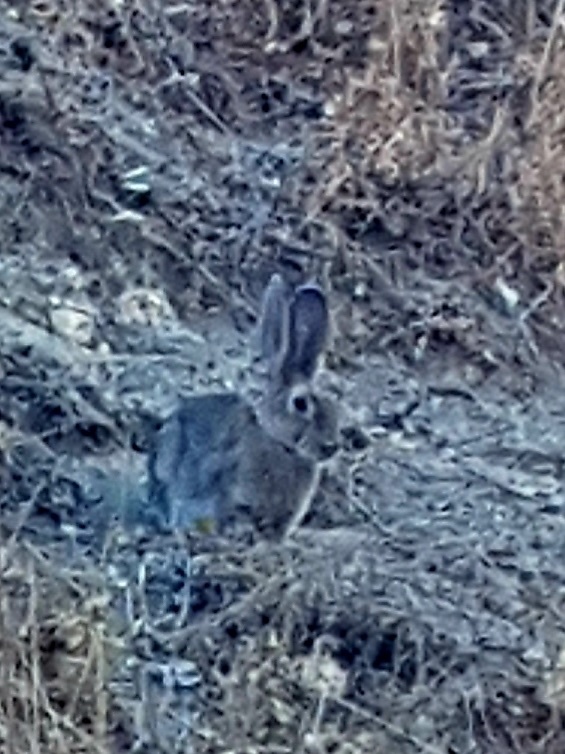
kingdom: Animalia
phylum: Chordata
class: Mammalia
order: Lagomorpha
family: Leporidae
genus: Oryctolagus
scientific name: Oryctolagus cuniculus
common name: European rabbit
